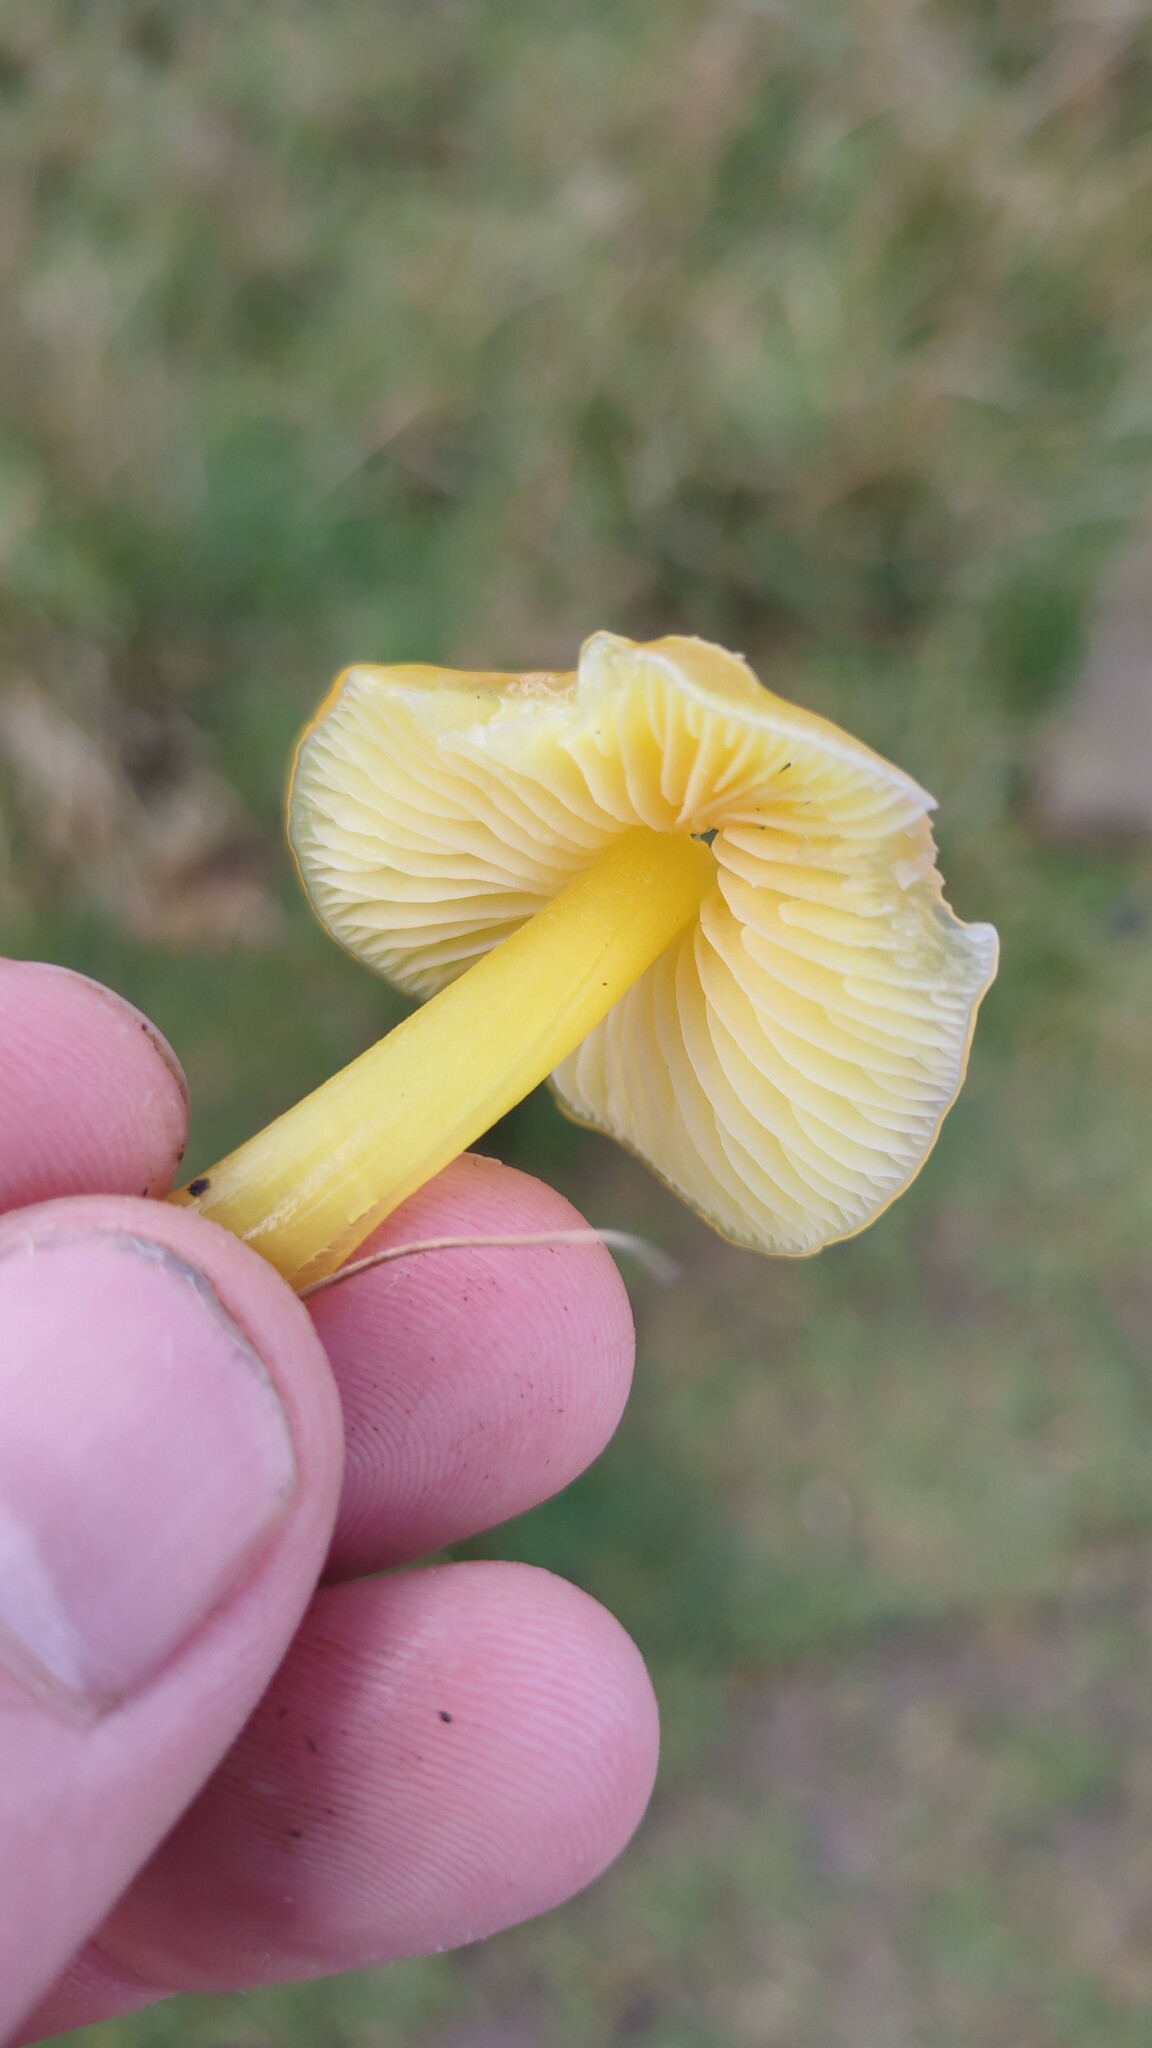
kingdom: Fungi
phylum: Basidiomycota
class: Agaricomycetes
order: Agaricales
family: Hygrophoraceae
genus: Hygrocybe
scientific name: Hygrocybe chlorophana
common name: Golden waxcap
